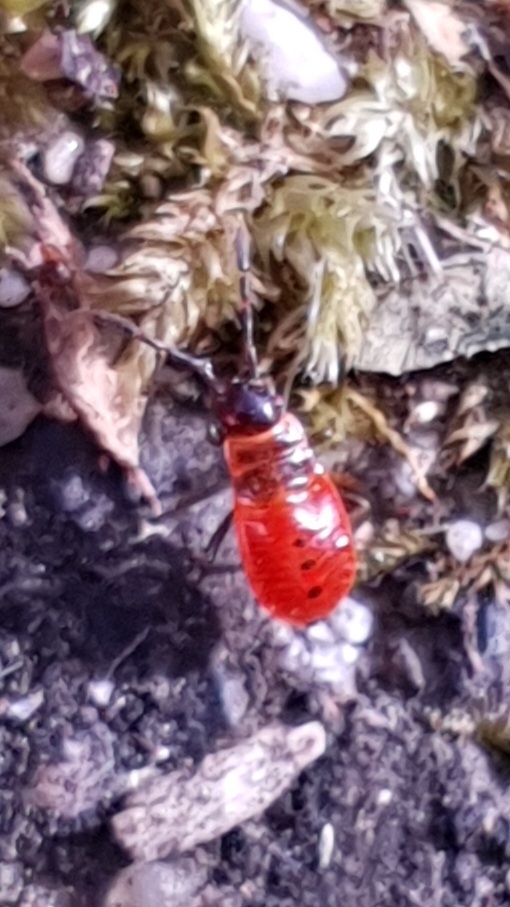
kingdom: Animalia
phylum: Arthropoda
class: Insecta
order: Hemiptera
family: Pyrrhocoridae
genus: Pyrrhocoris
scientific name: Pyrrhocoris apterus
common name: Firebug
